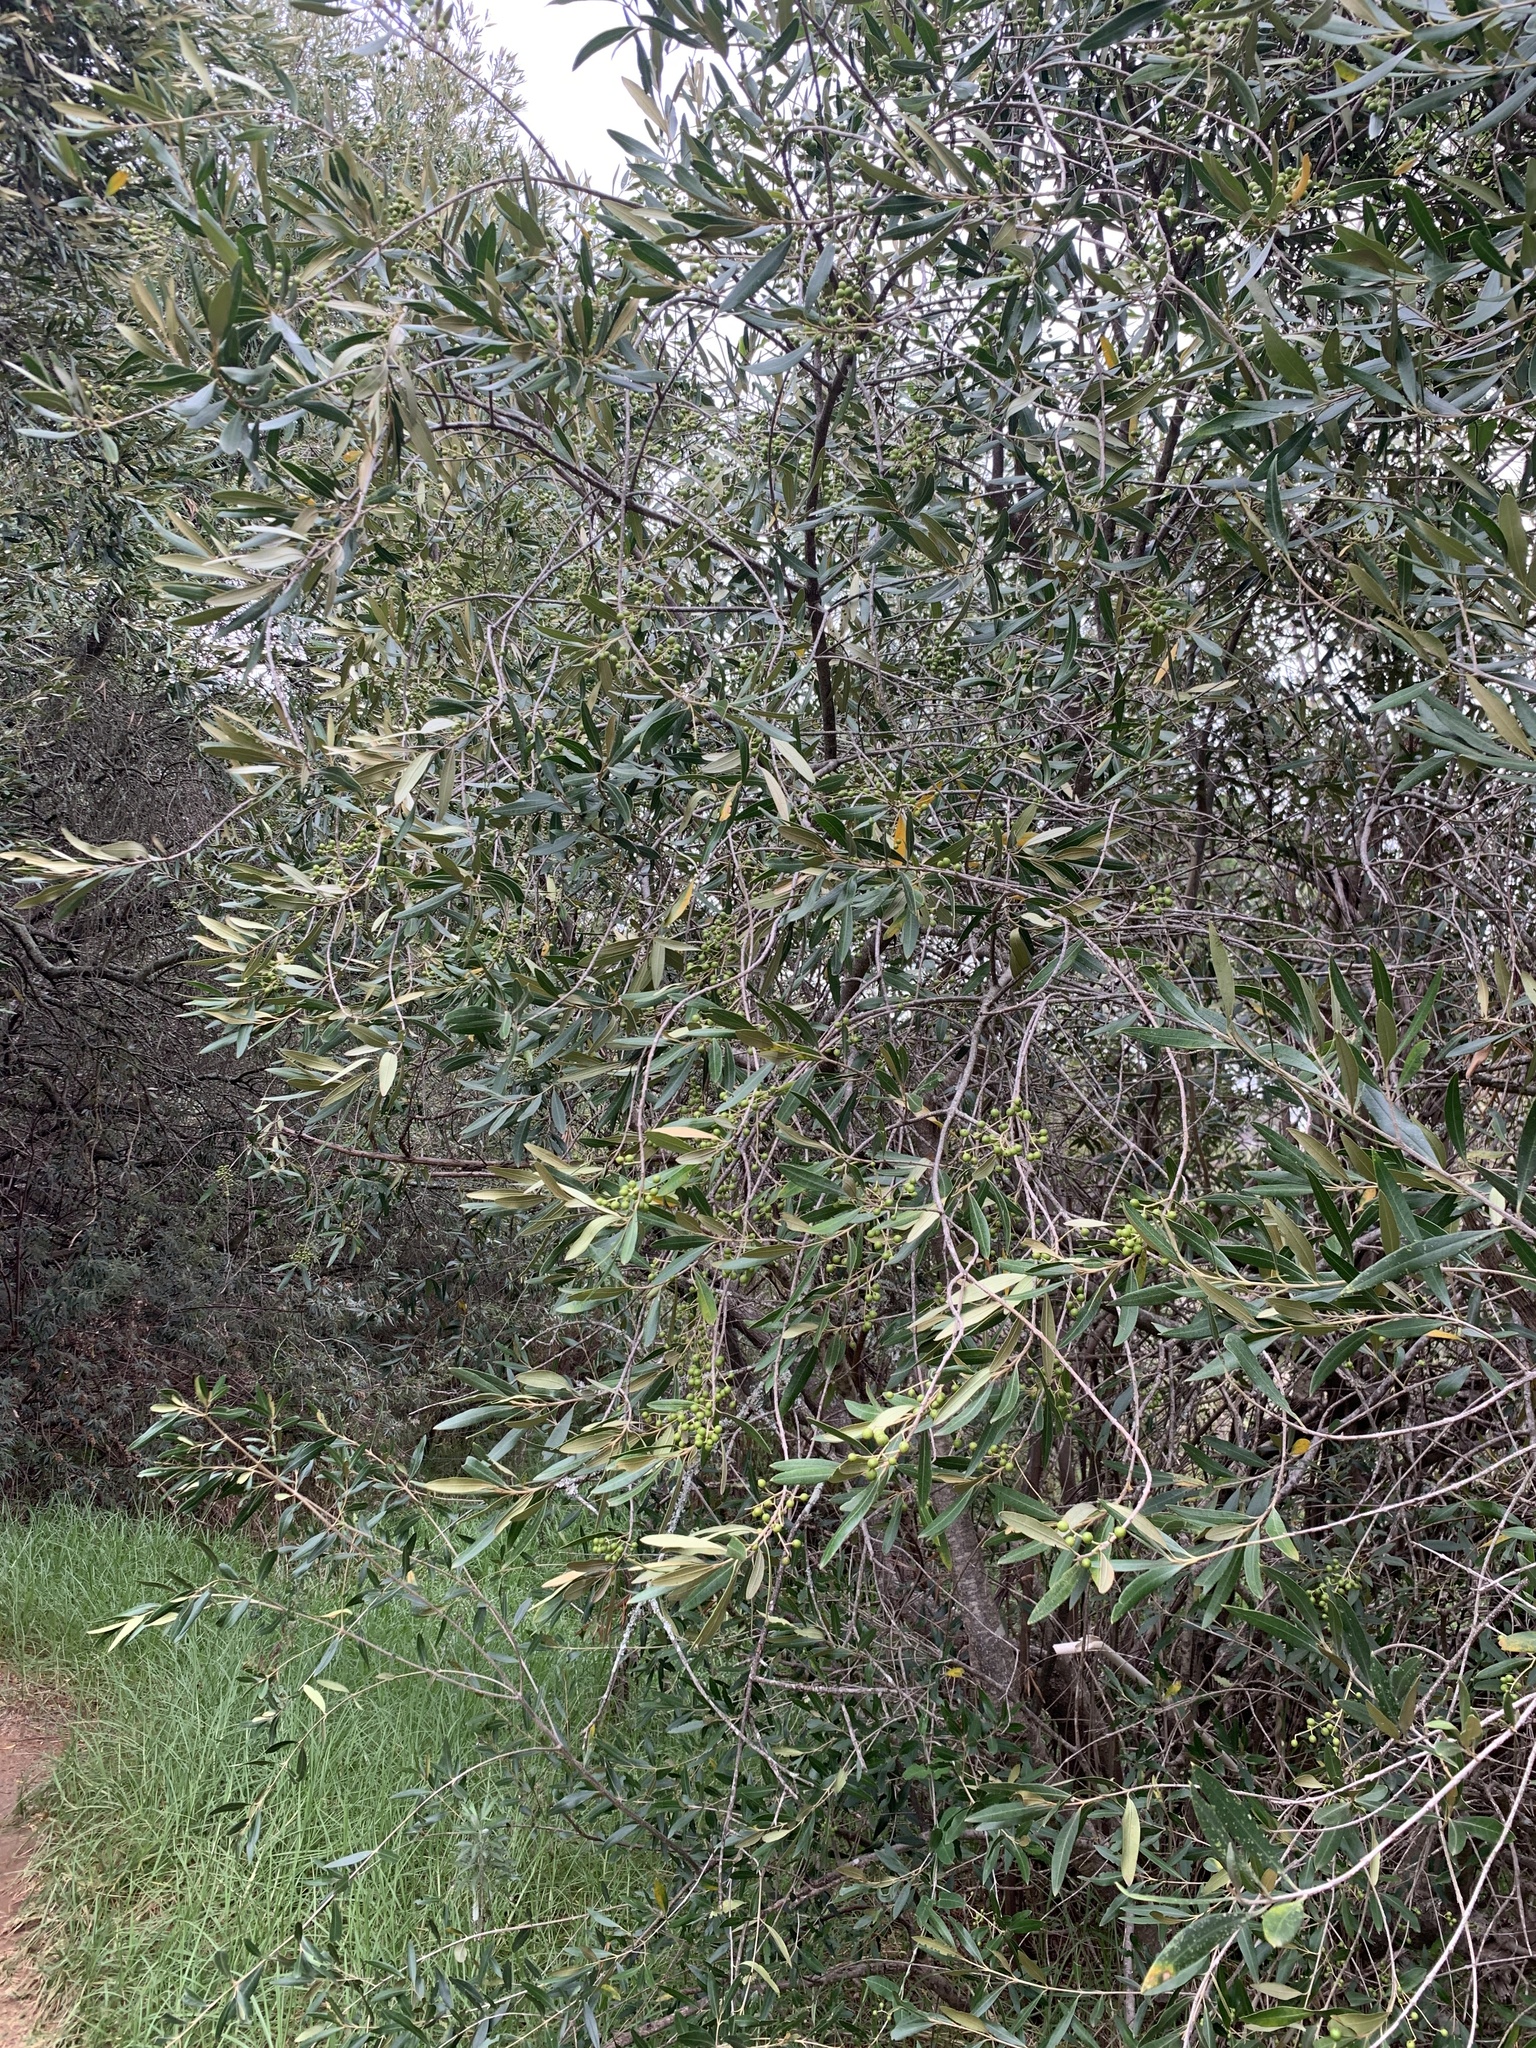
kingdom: Plantae
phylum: Tracheophyta
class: Magnoliopsida
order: Lamiales
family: Oleaceae
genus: Olea
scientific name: Olea europaea
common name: Olive
